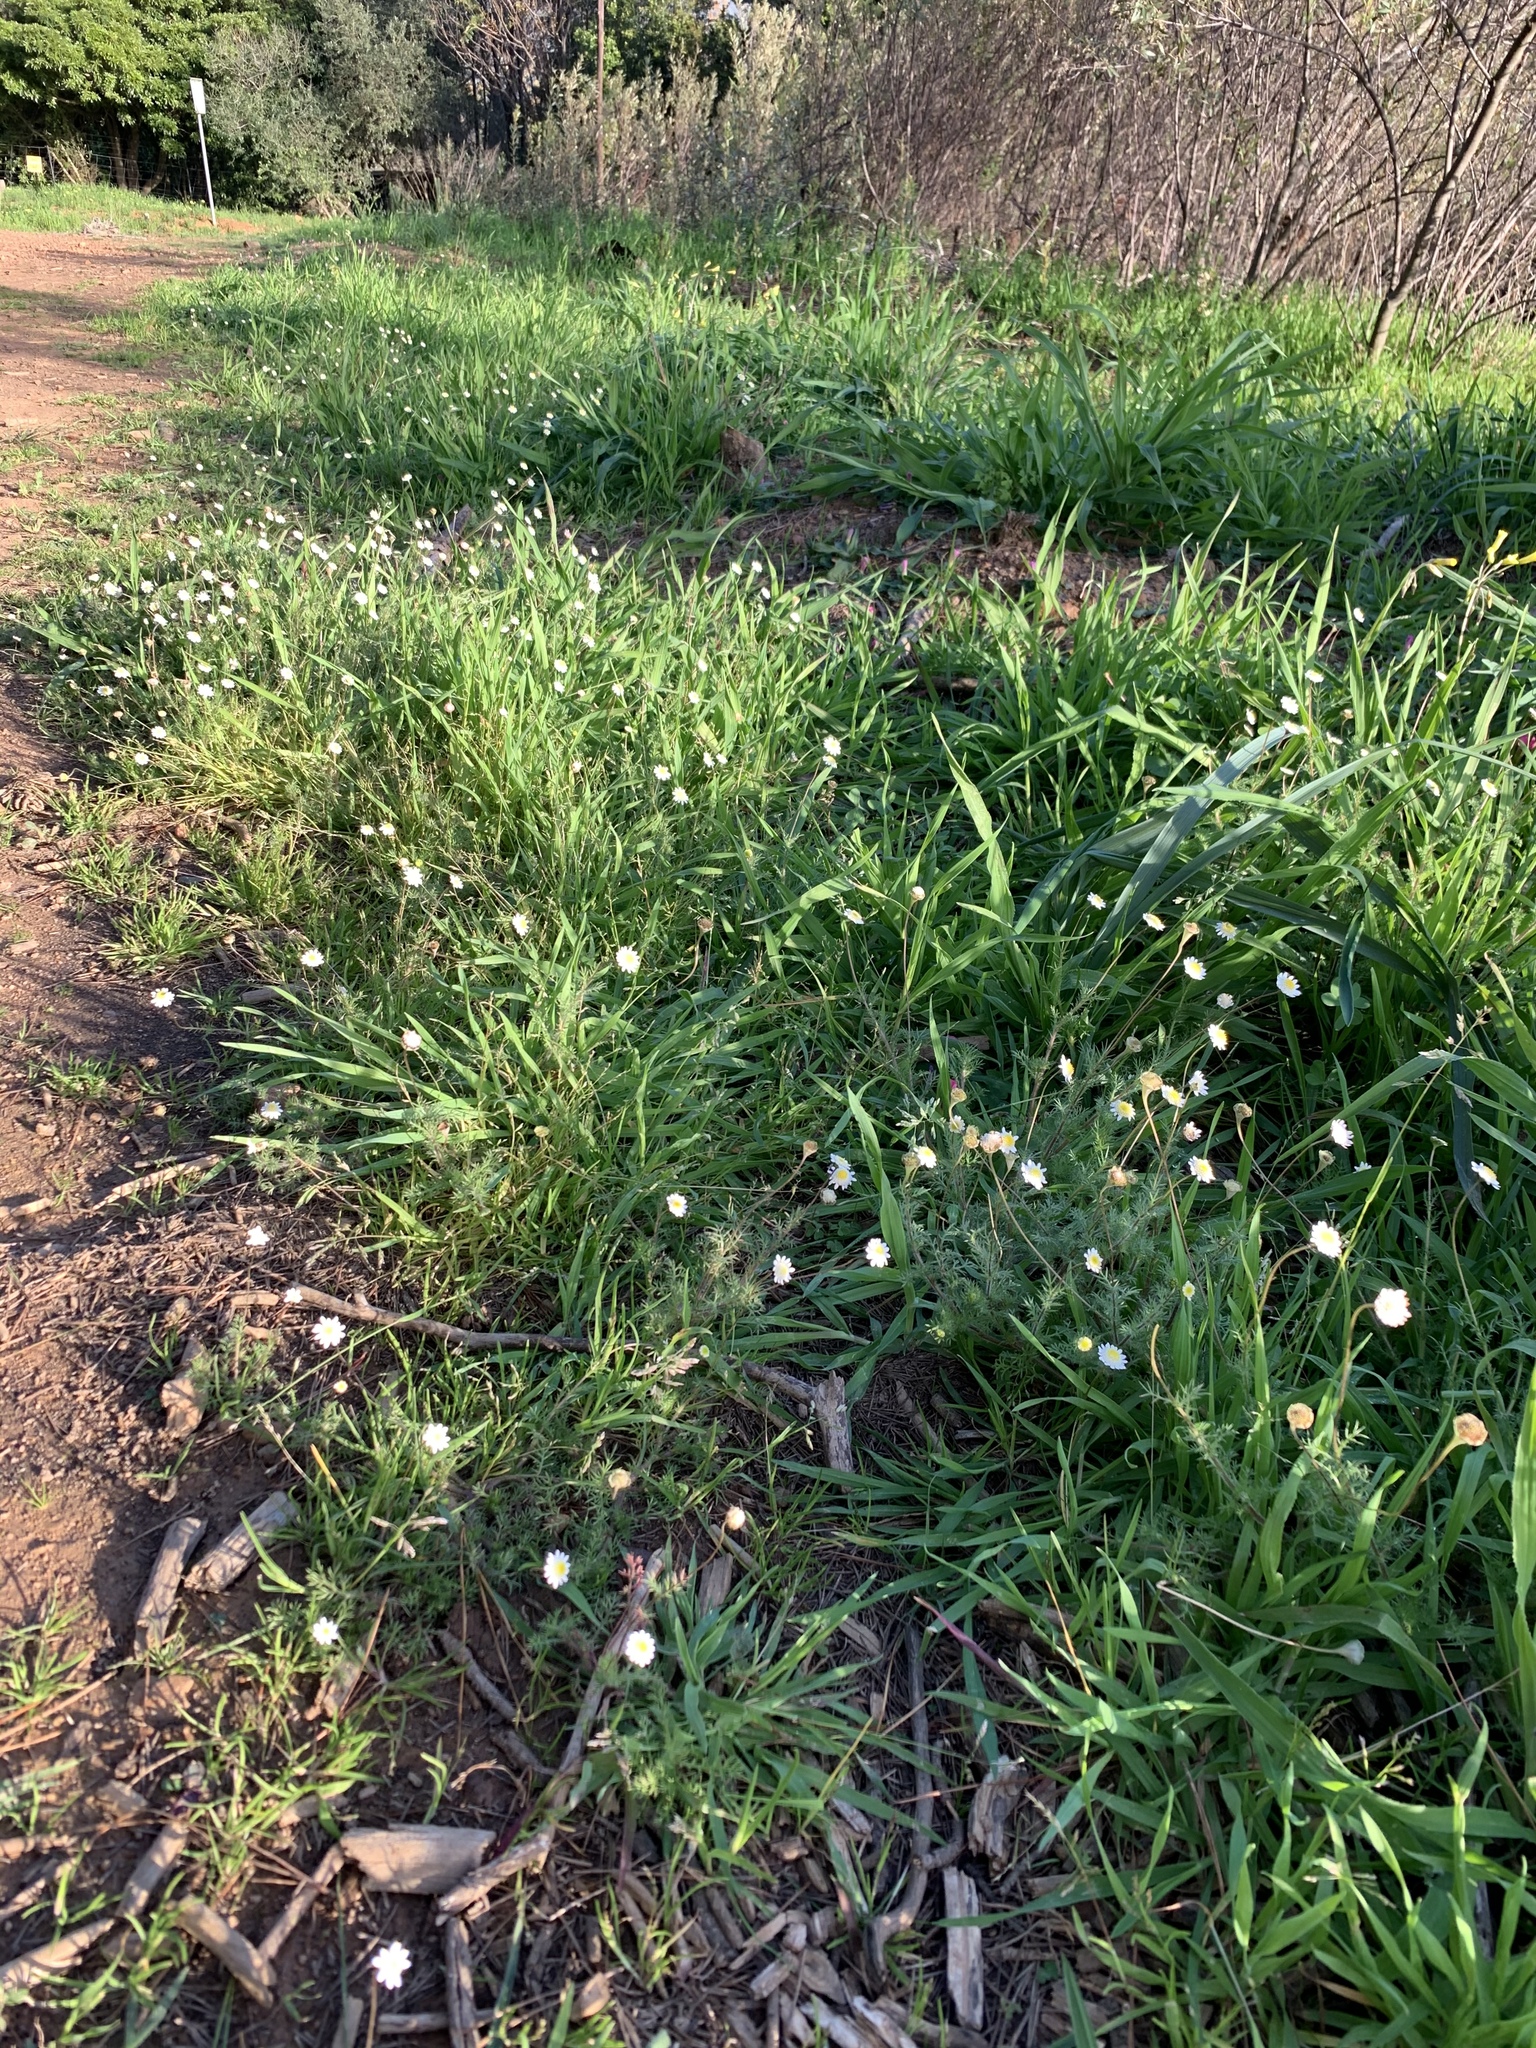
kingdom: Plantae
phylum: Tracheophyta
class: Magnoliopsida
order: Asterales
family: Asteraceae
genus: Cotula
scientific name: Cotula turbinata
